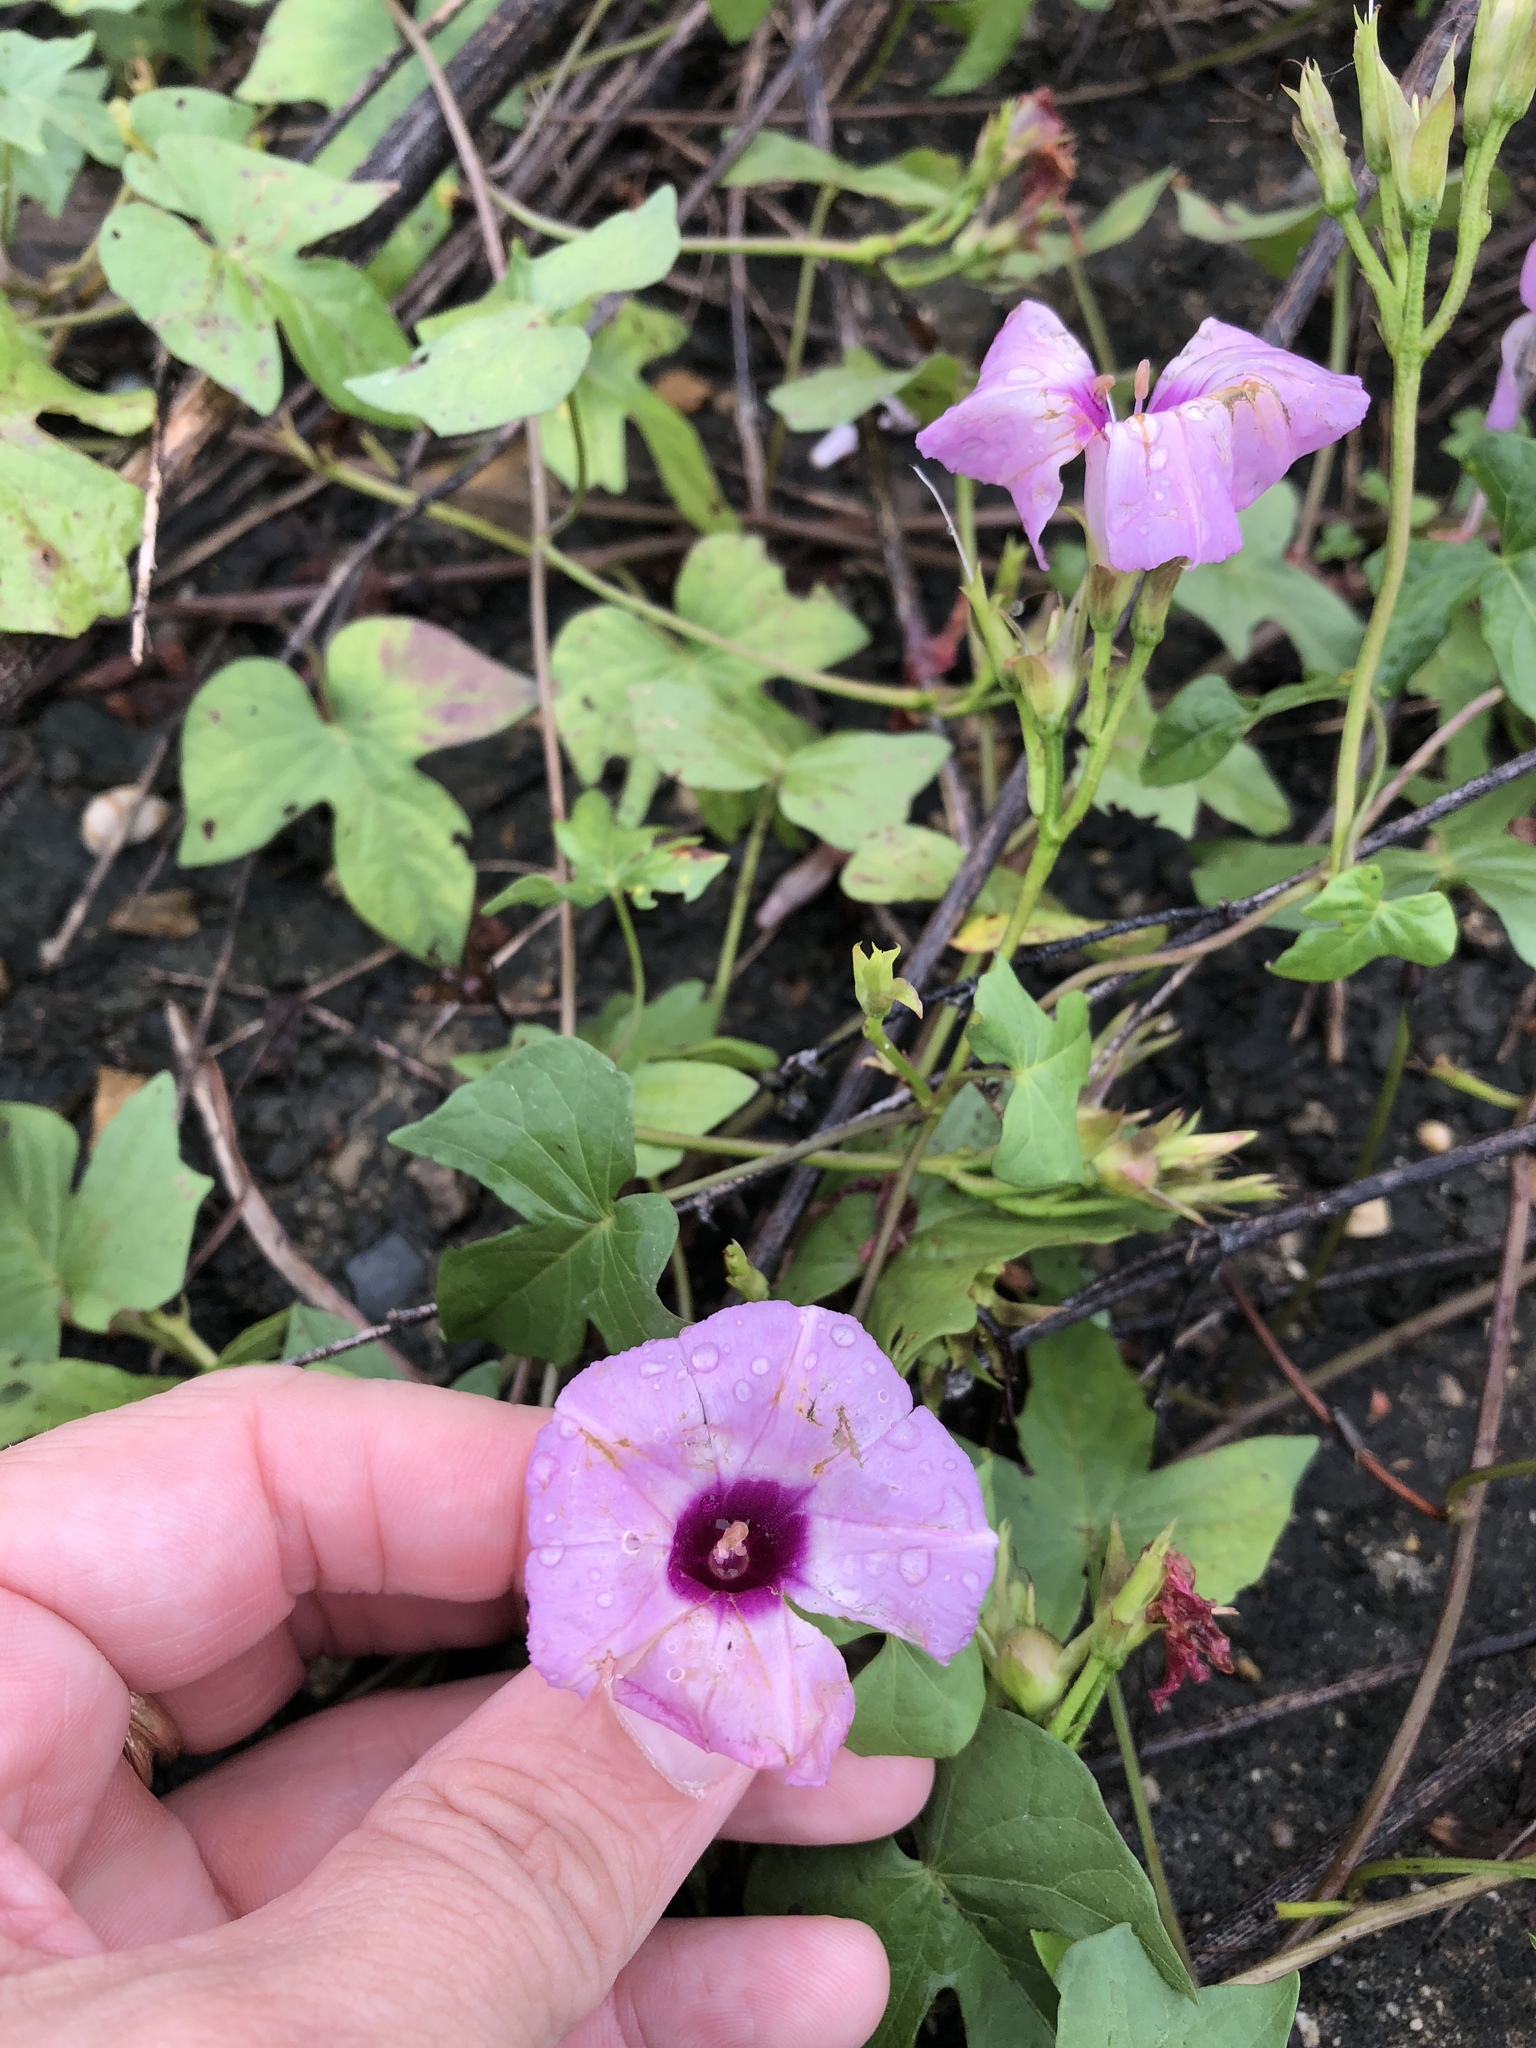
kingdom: Plantae
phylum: Tracheophyta
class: Magnoliopsida
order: Solanales
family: Convolvulaceae
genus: Ipomoea
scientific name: Ipomoea cordatotriloba
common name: Cotton morning glory
